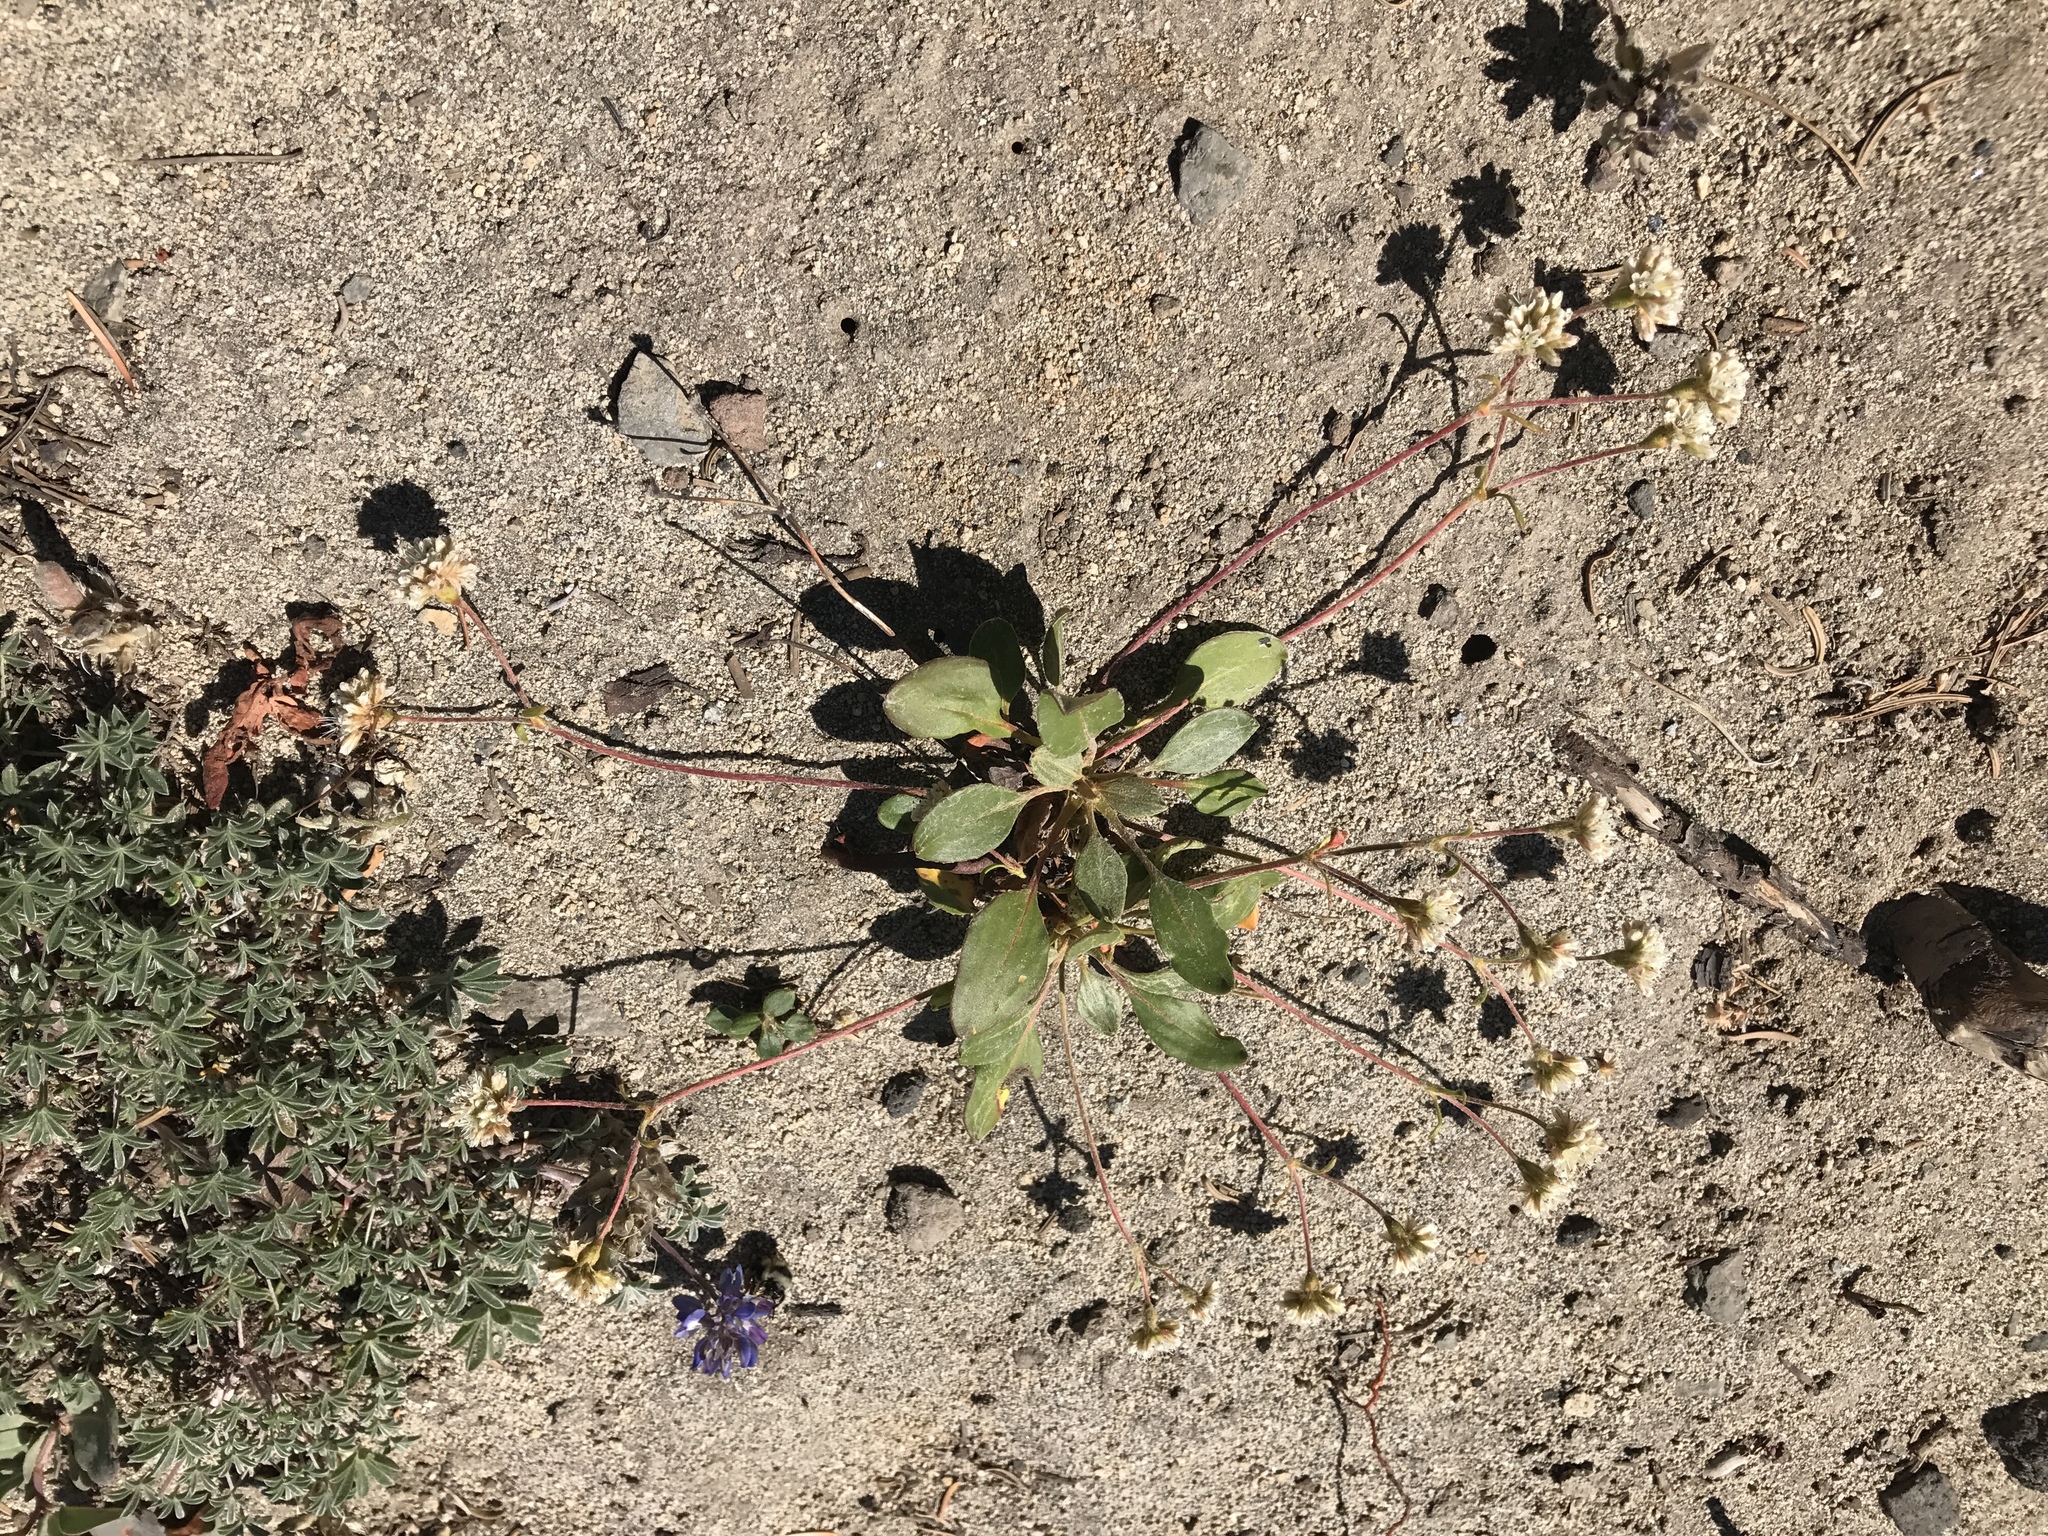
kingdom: Plantae
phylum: Tracheophyta
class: Magnoliopsida
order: Caryophyllales
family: Polygonaceae
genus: Eriogonum
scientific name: Eriogonum pyrolifolium
